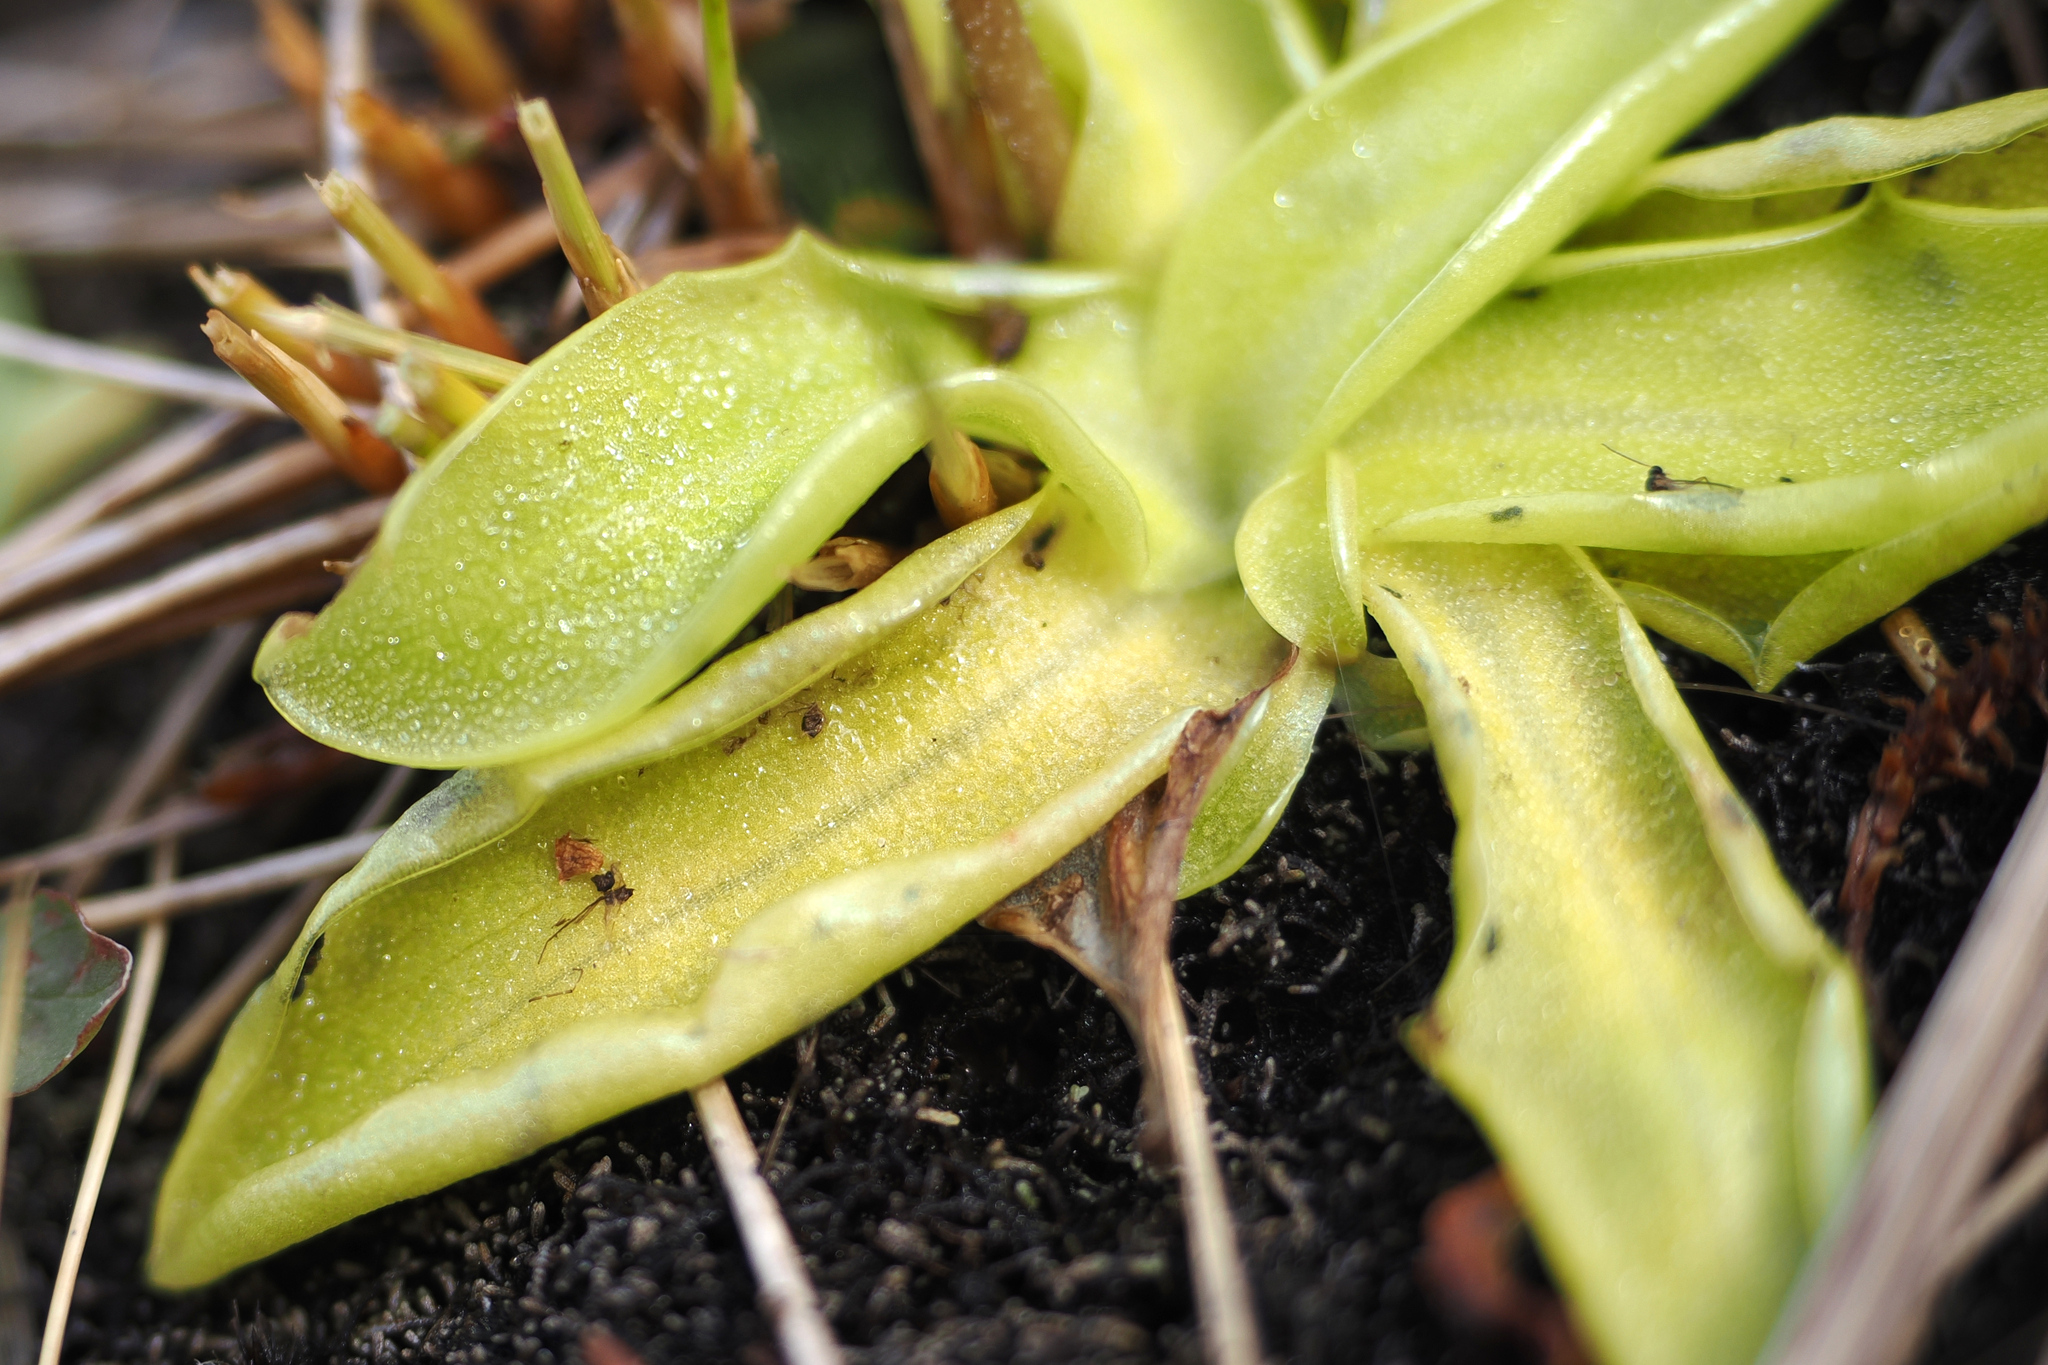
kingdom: Plantae
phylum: Tracheophyta
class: Magnoliopsida
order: Lamiales
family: Lentibulariaceae
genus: Pinguicula
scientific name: Pinguicula vulgaris
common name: Common butterwort
